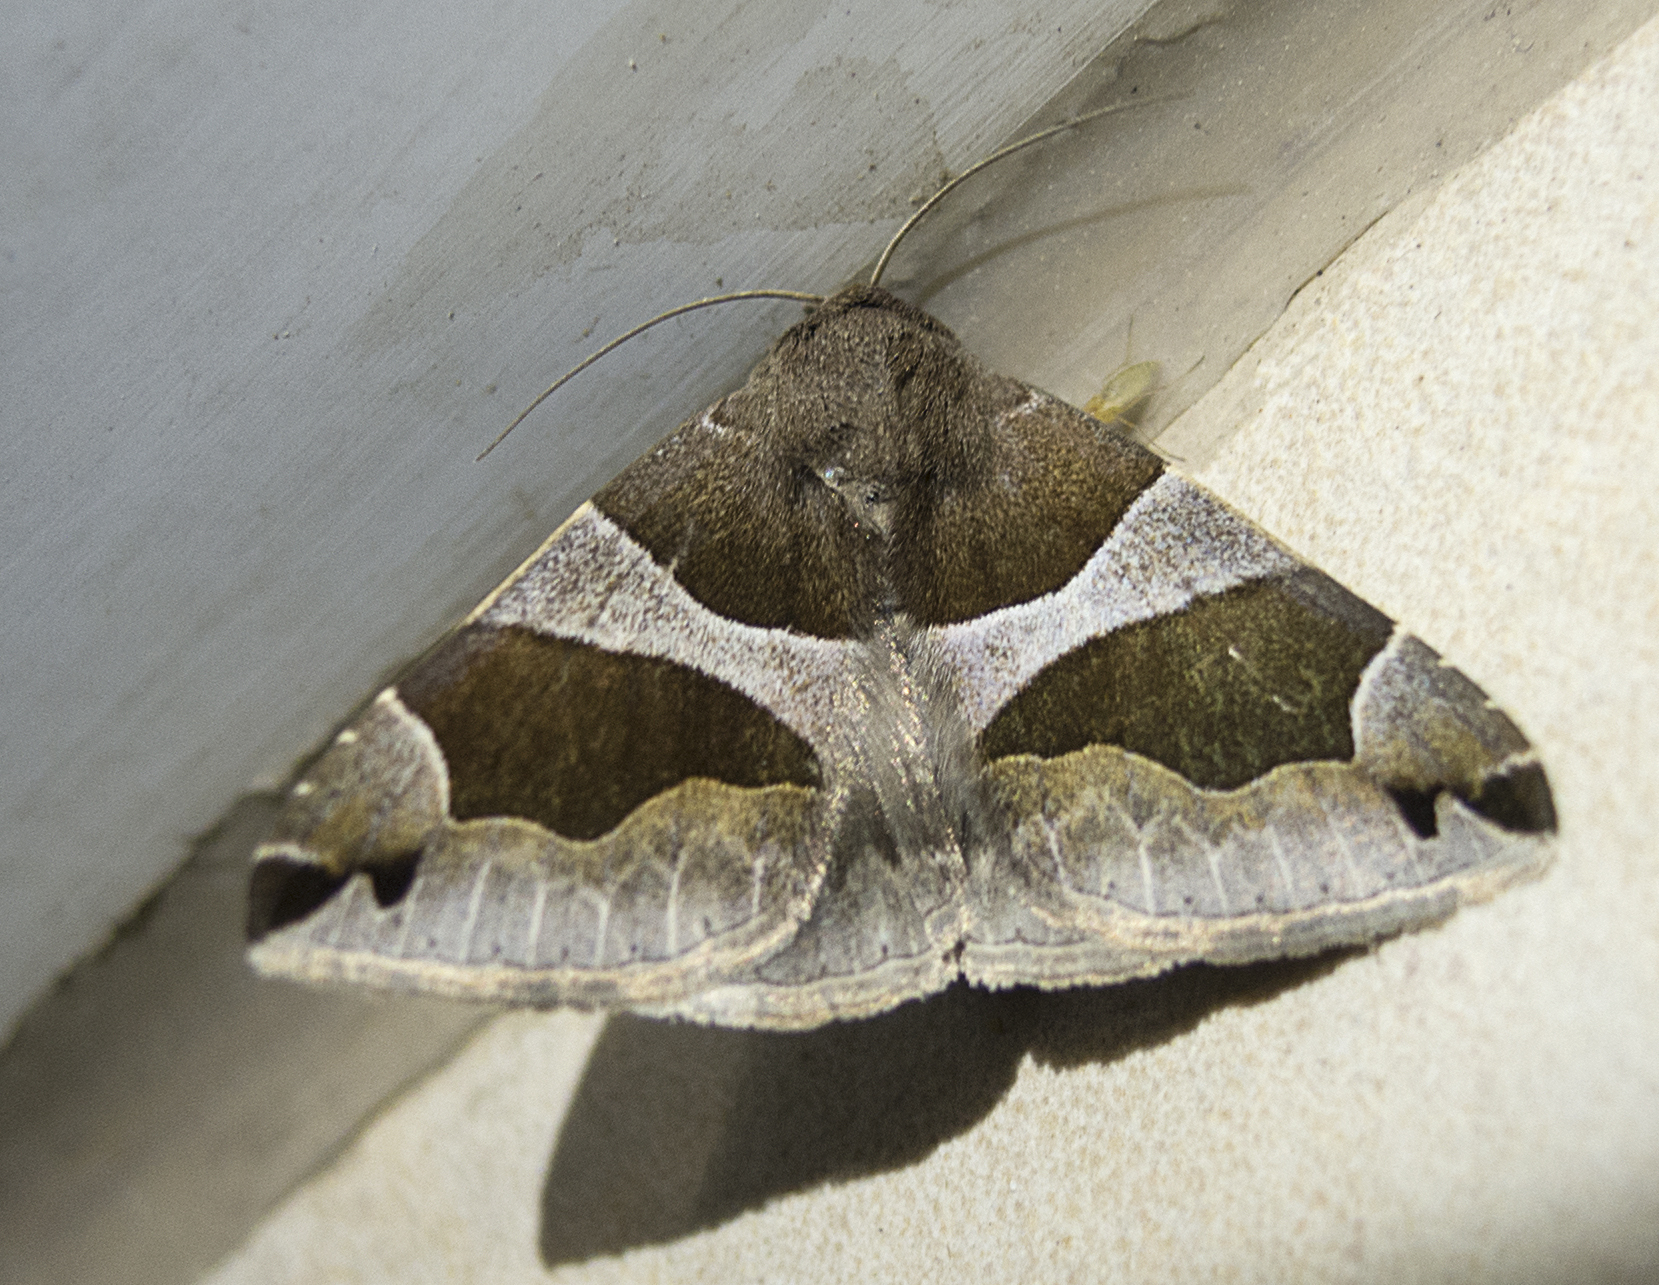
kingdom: Animalia
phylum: Arthropoda
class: Insecta
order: Lepidoptera
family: Erebidae
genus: Dysgonia
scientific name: Dysgonia algira
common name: Passenger
